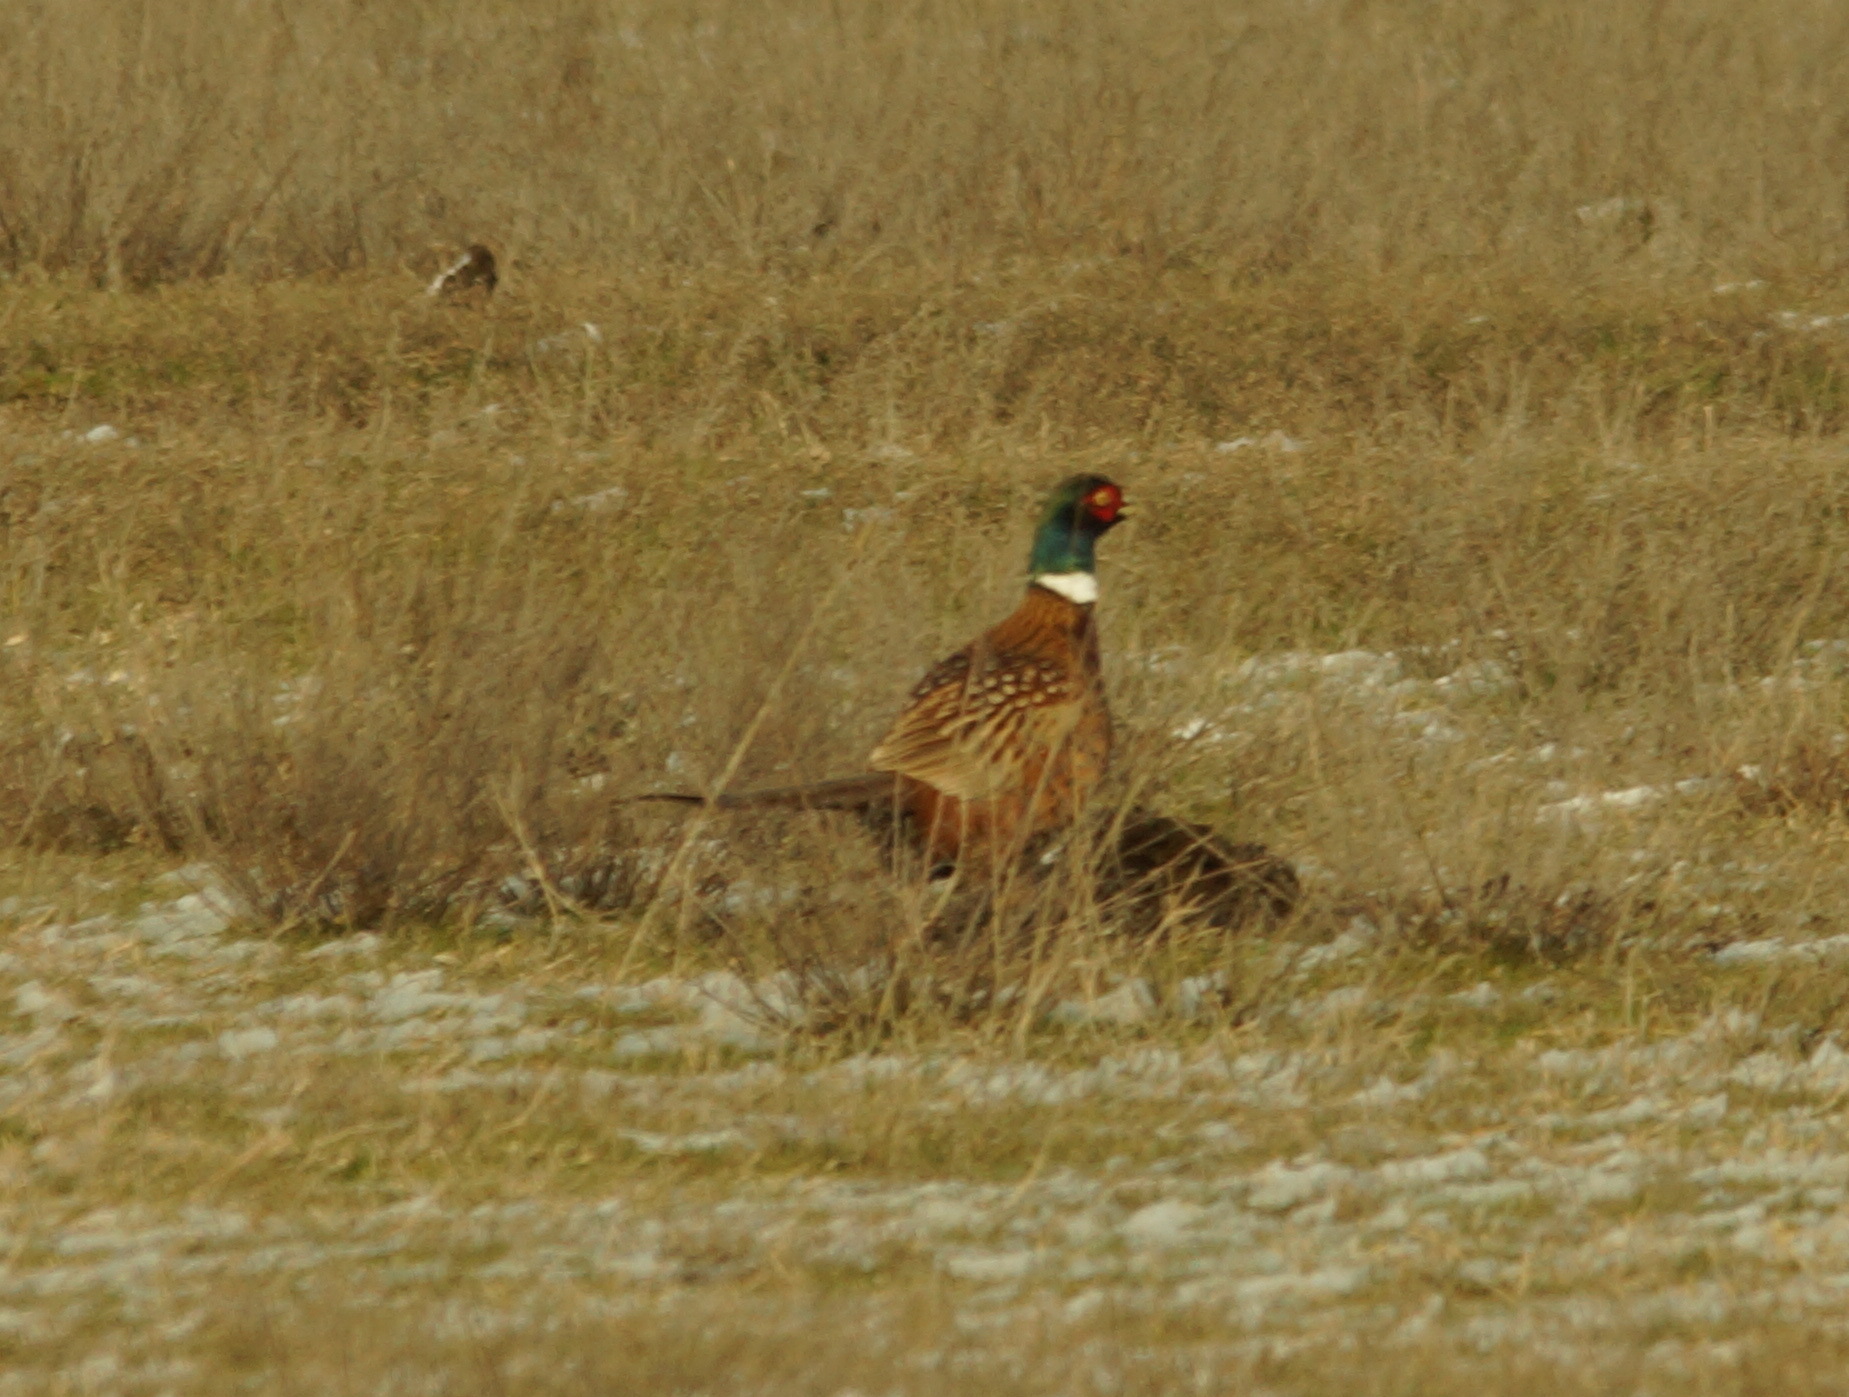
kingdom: Animalia
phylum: Chordata
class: Aves
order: Galliformes
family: Phasianidae
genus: Phasianus
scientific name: Phasianus colchicus
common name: Common pheasant
